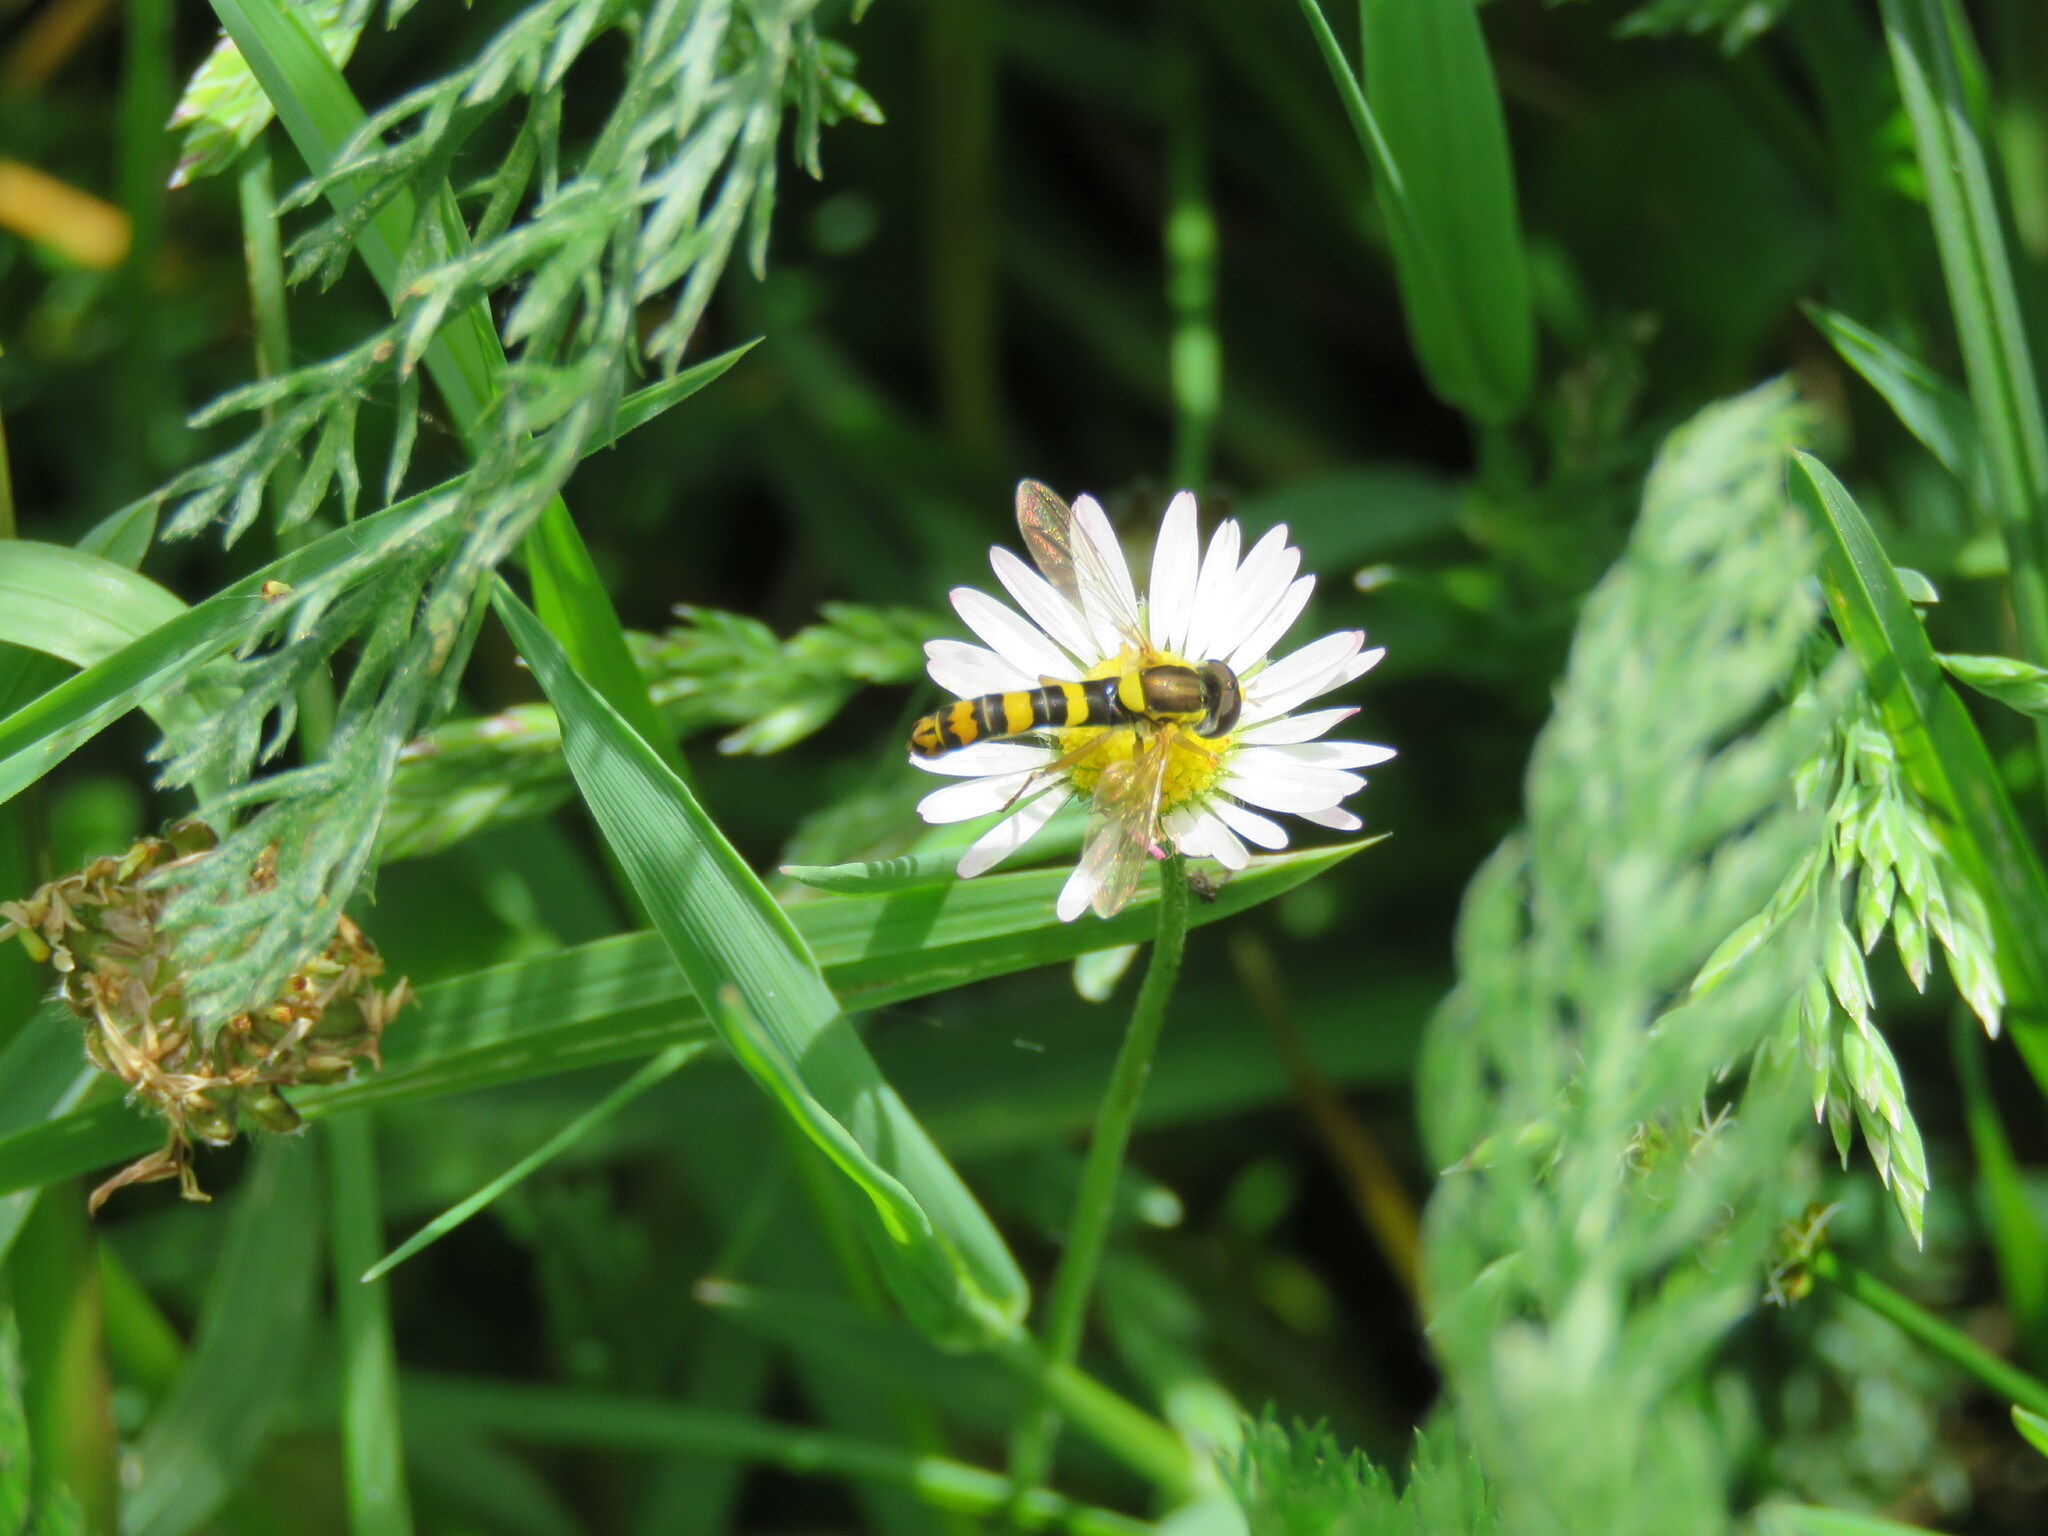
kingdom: Animalia
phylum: Arthropoda
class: Insecta
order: Diptera
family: Syrphidae
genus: Sphaerophoria
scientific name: Sphaerophoria scripta
